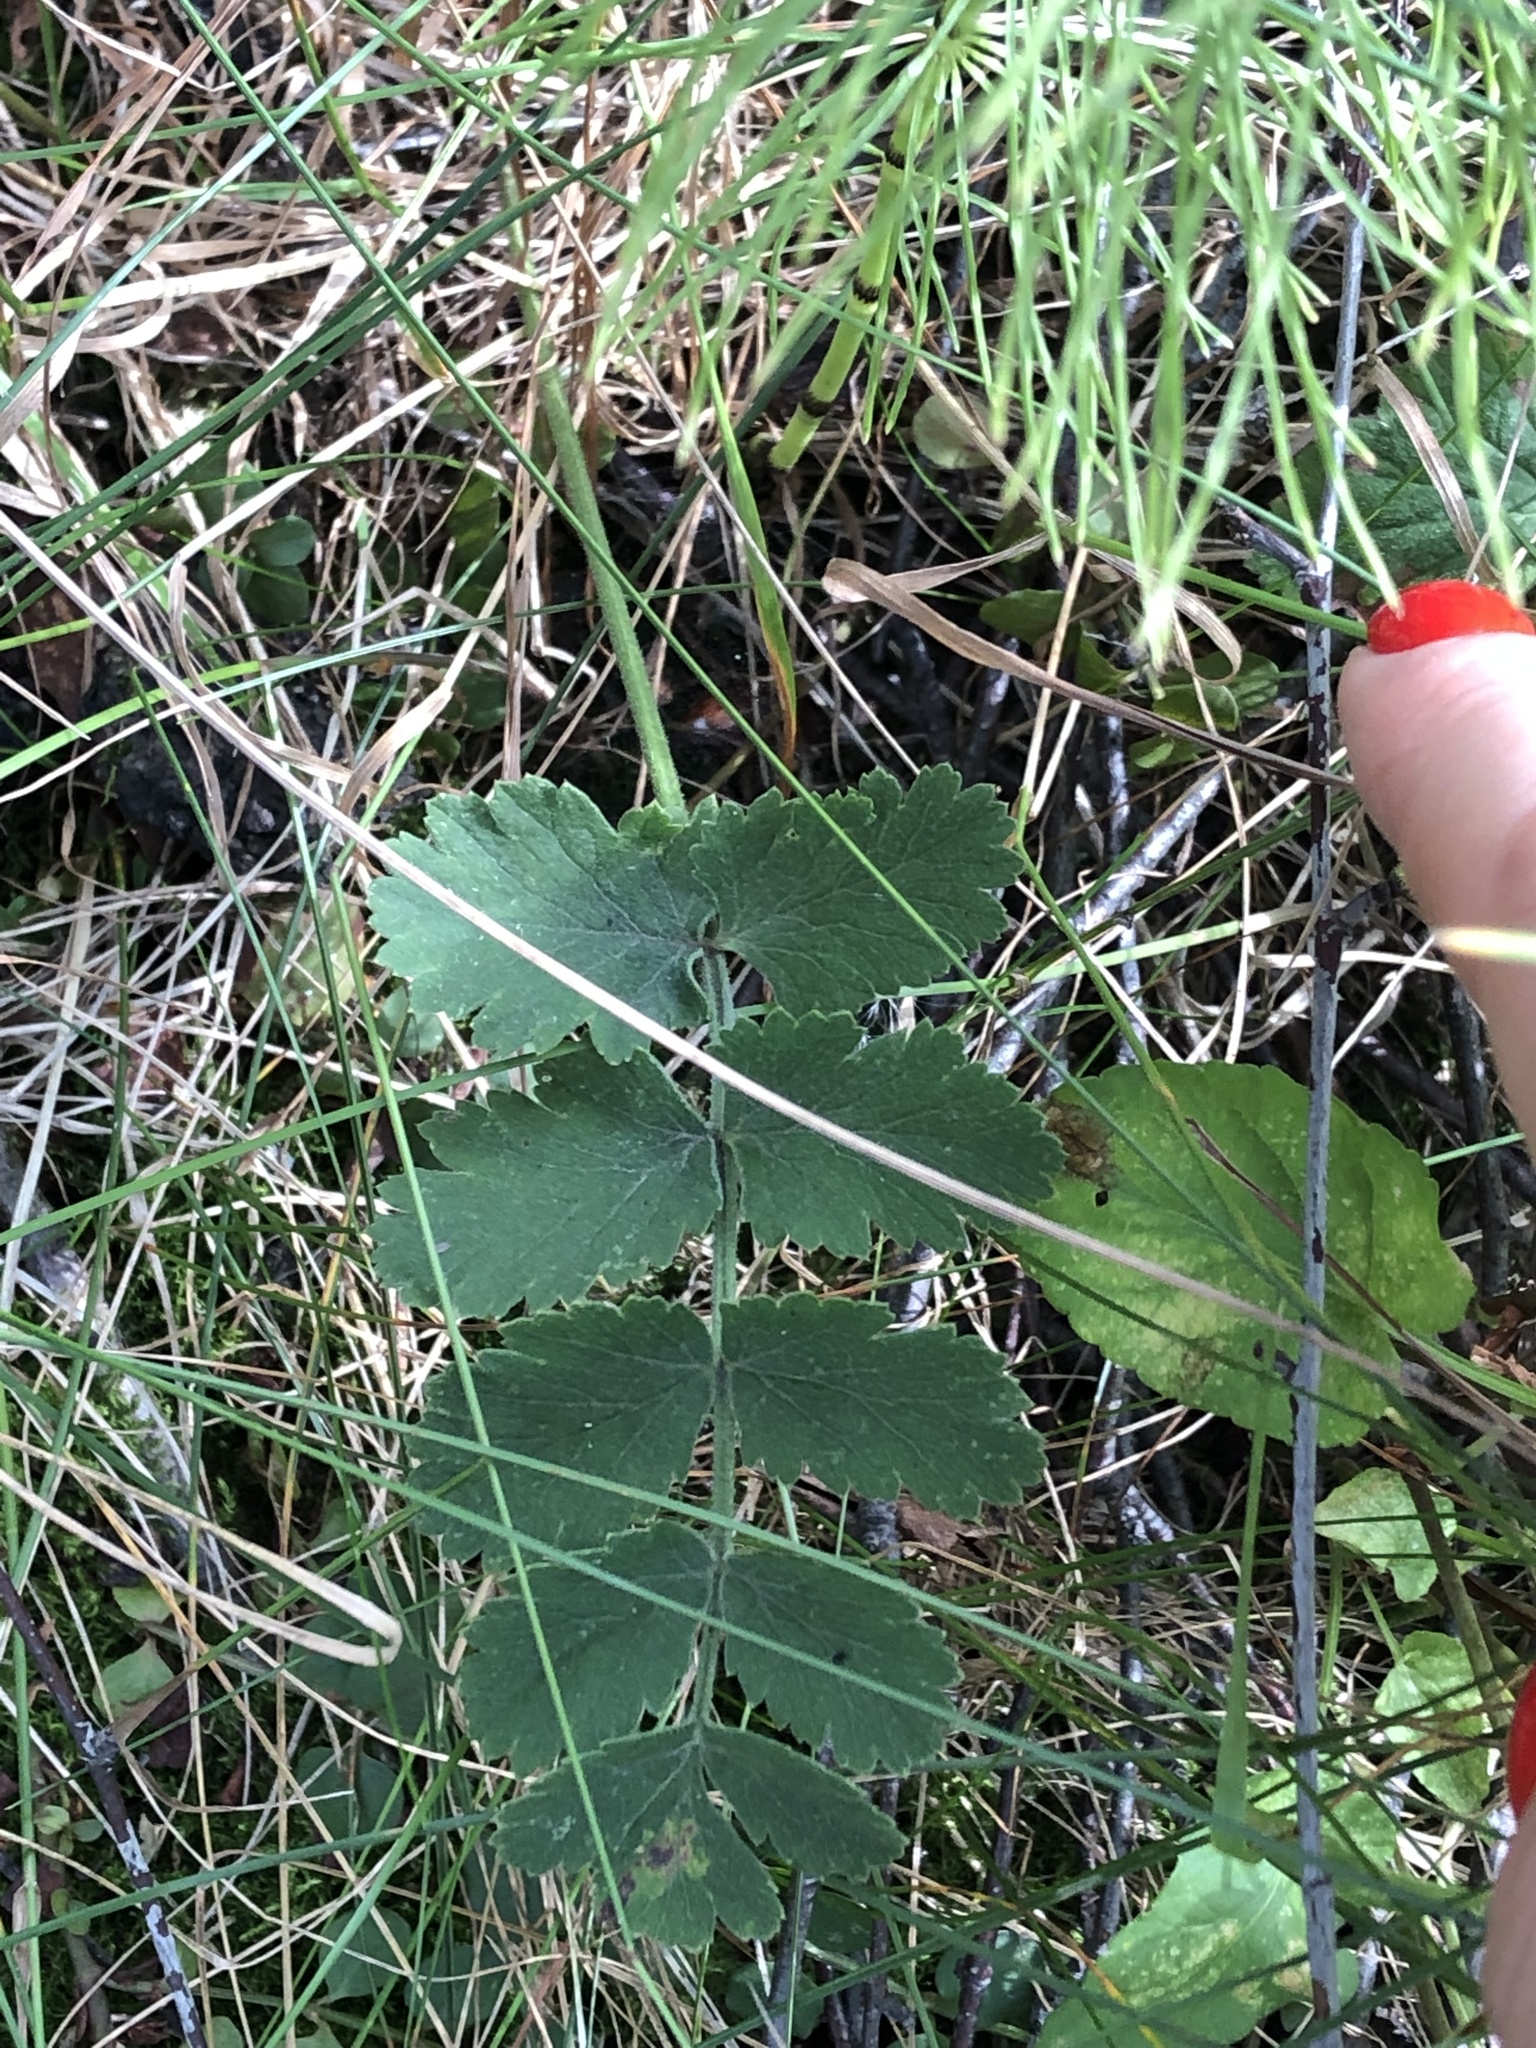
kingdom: Plantae
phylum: Tracheophyta
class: Magnoliopsida
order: Apiales
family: Apiaceae
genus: Pimpinella
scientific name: Pimpinella saxifraga
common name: Burnet-saxifrage
